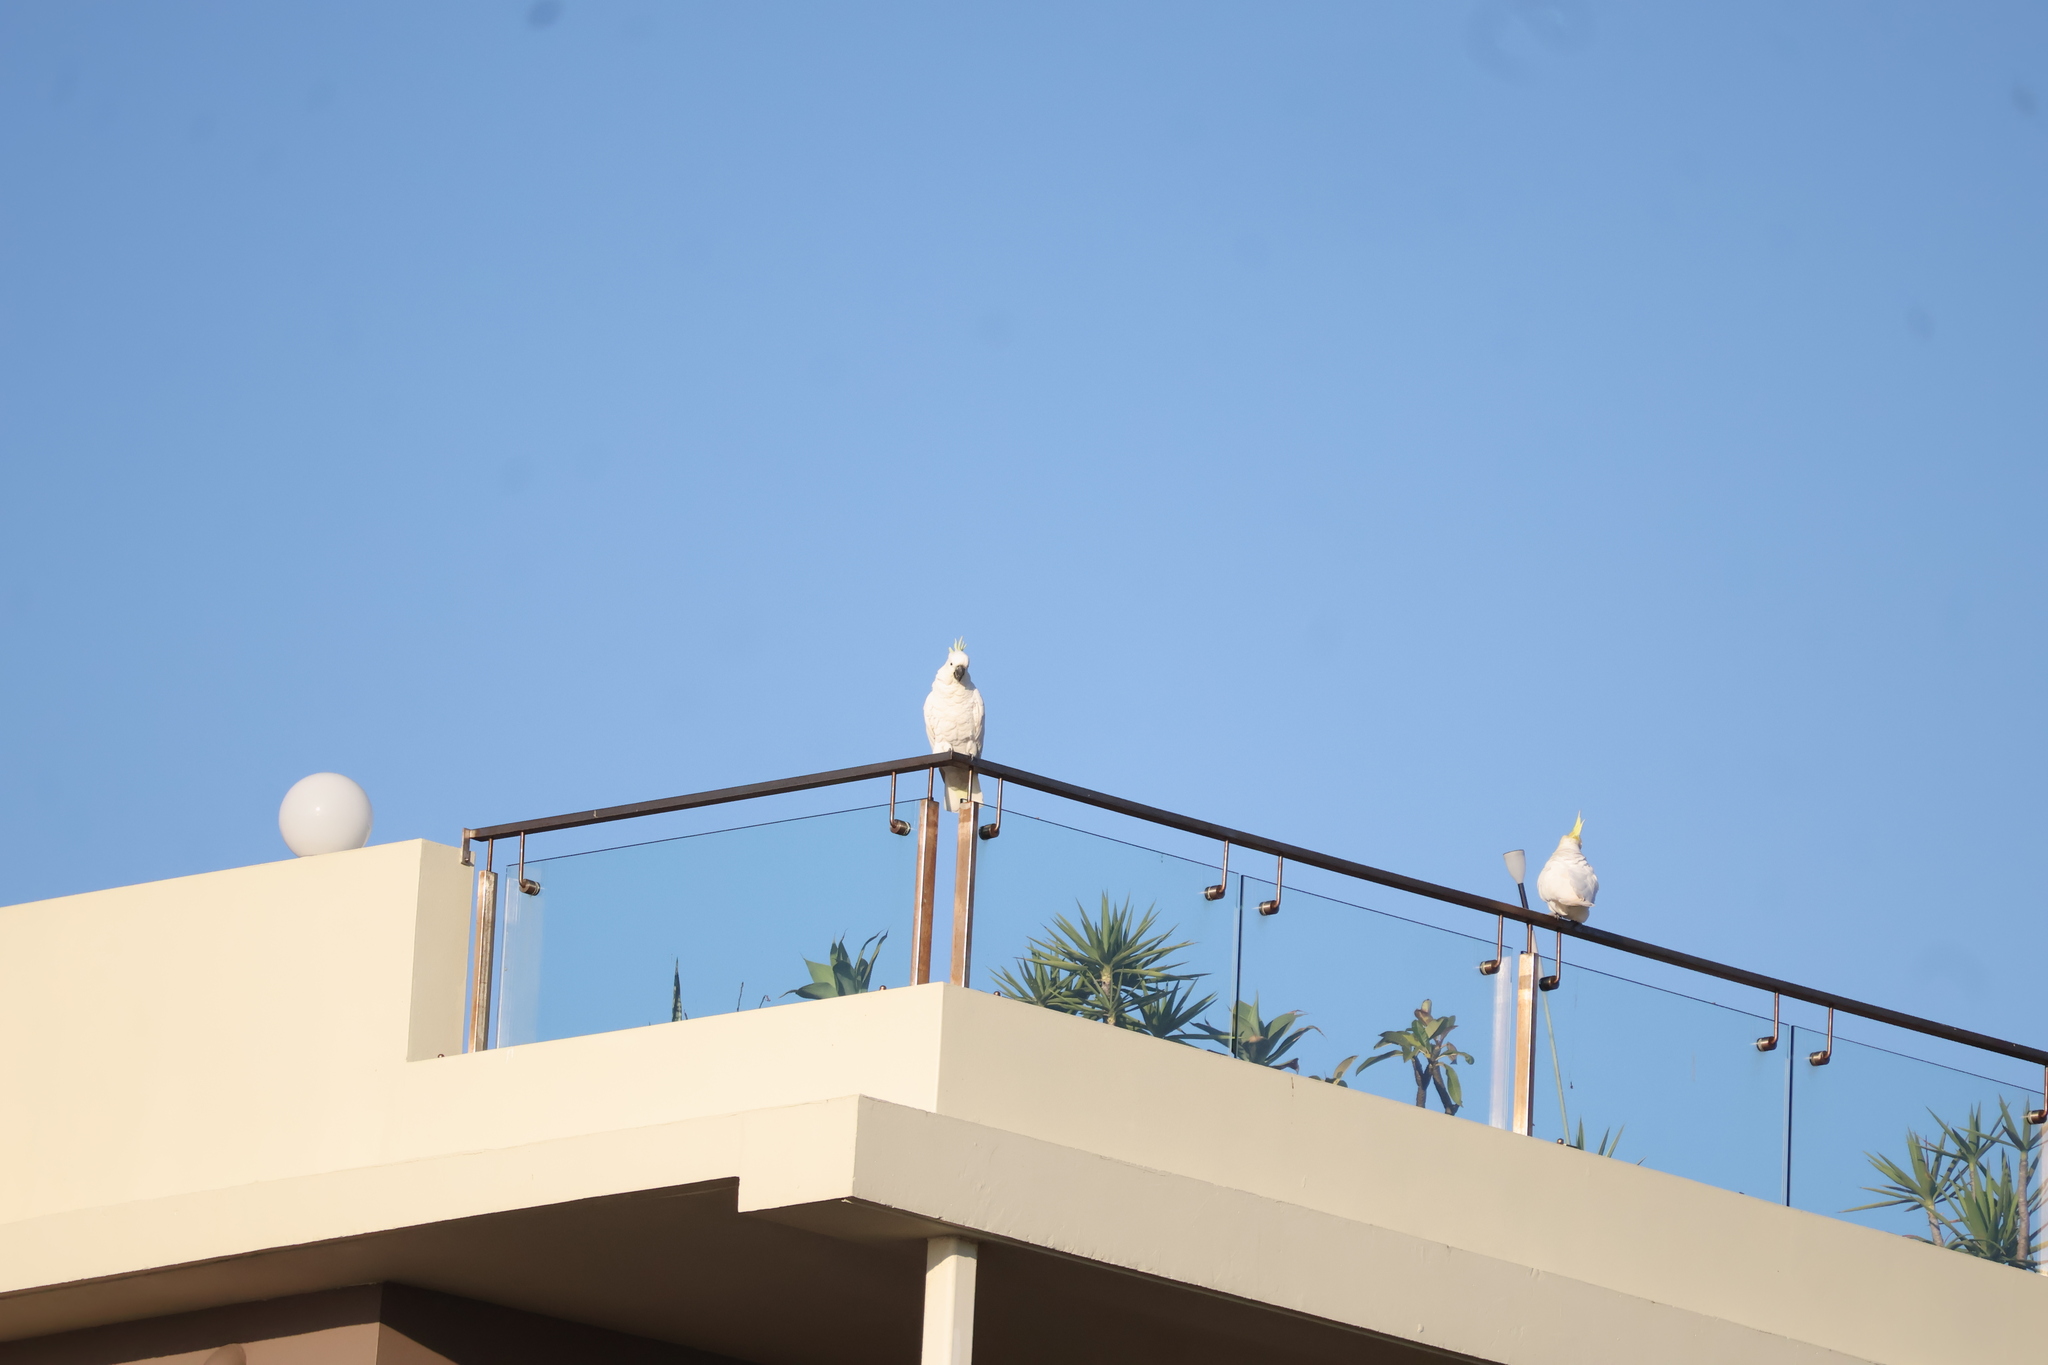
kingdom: Animalia
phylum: Chordata
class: Aves
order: Psittaciformes
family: Psittacidae
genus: Cacatua
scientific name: Cacatua galerita
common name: Sulphur-crested cockatoo
